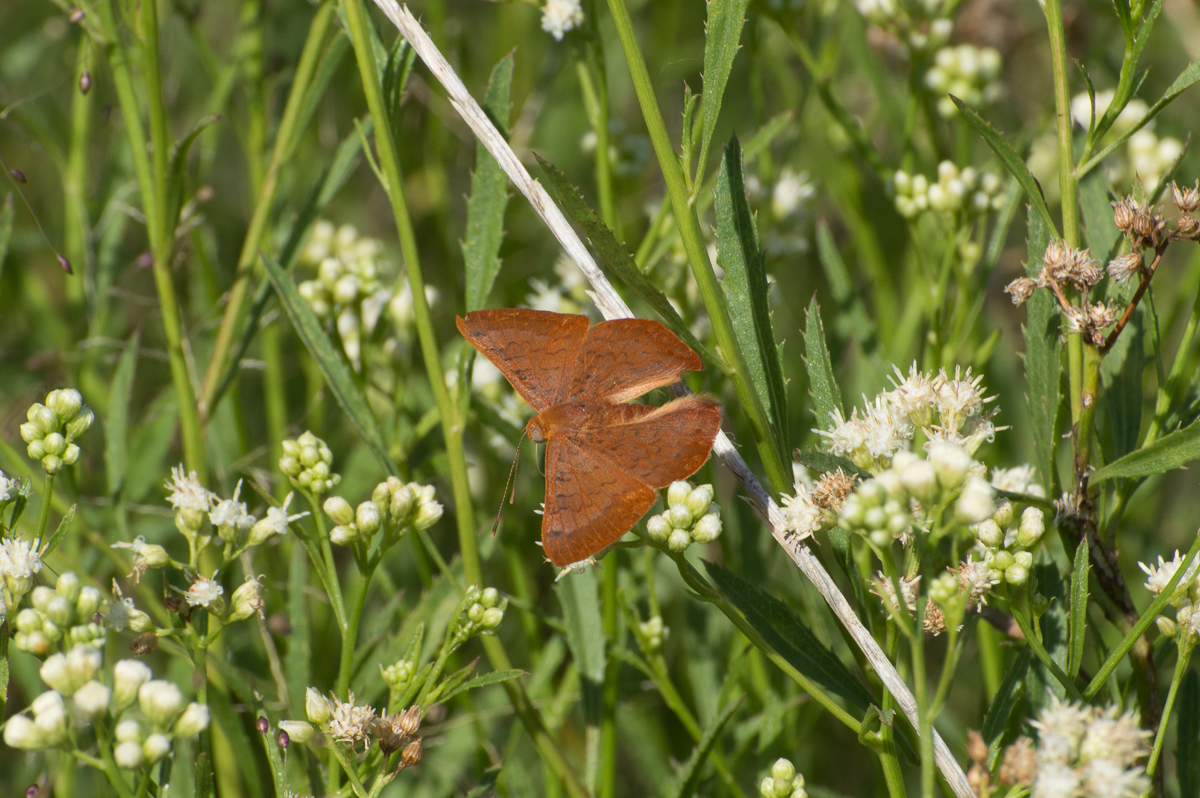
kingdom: Animalia
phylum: Arthropoda
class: Insecta
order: Lepidoptera
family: Lycaenidae
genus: Emesis
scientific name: Emesis russula
